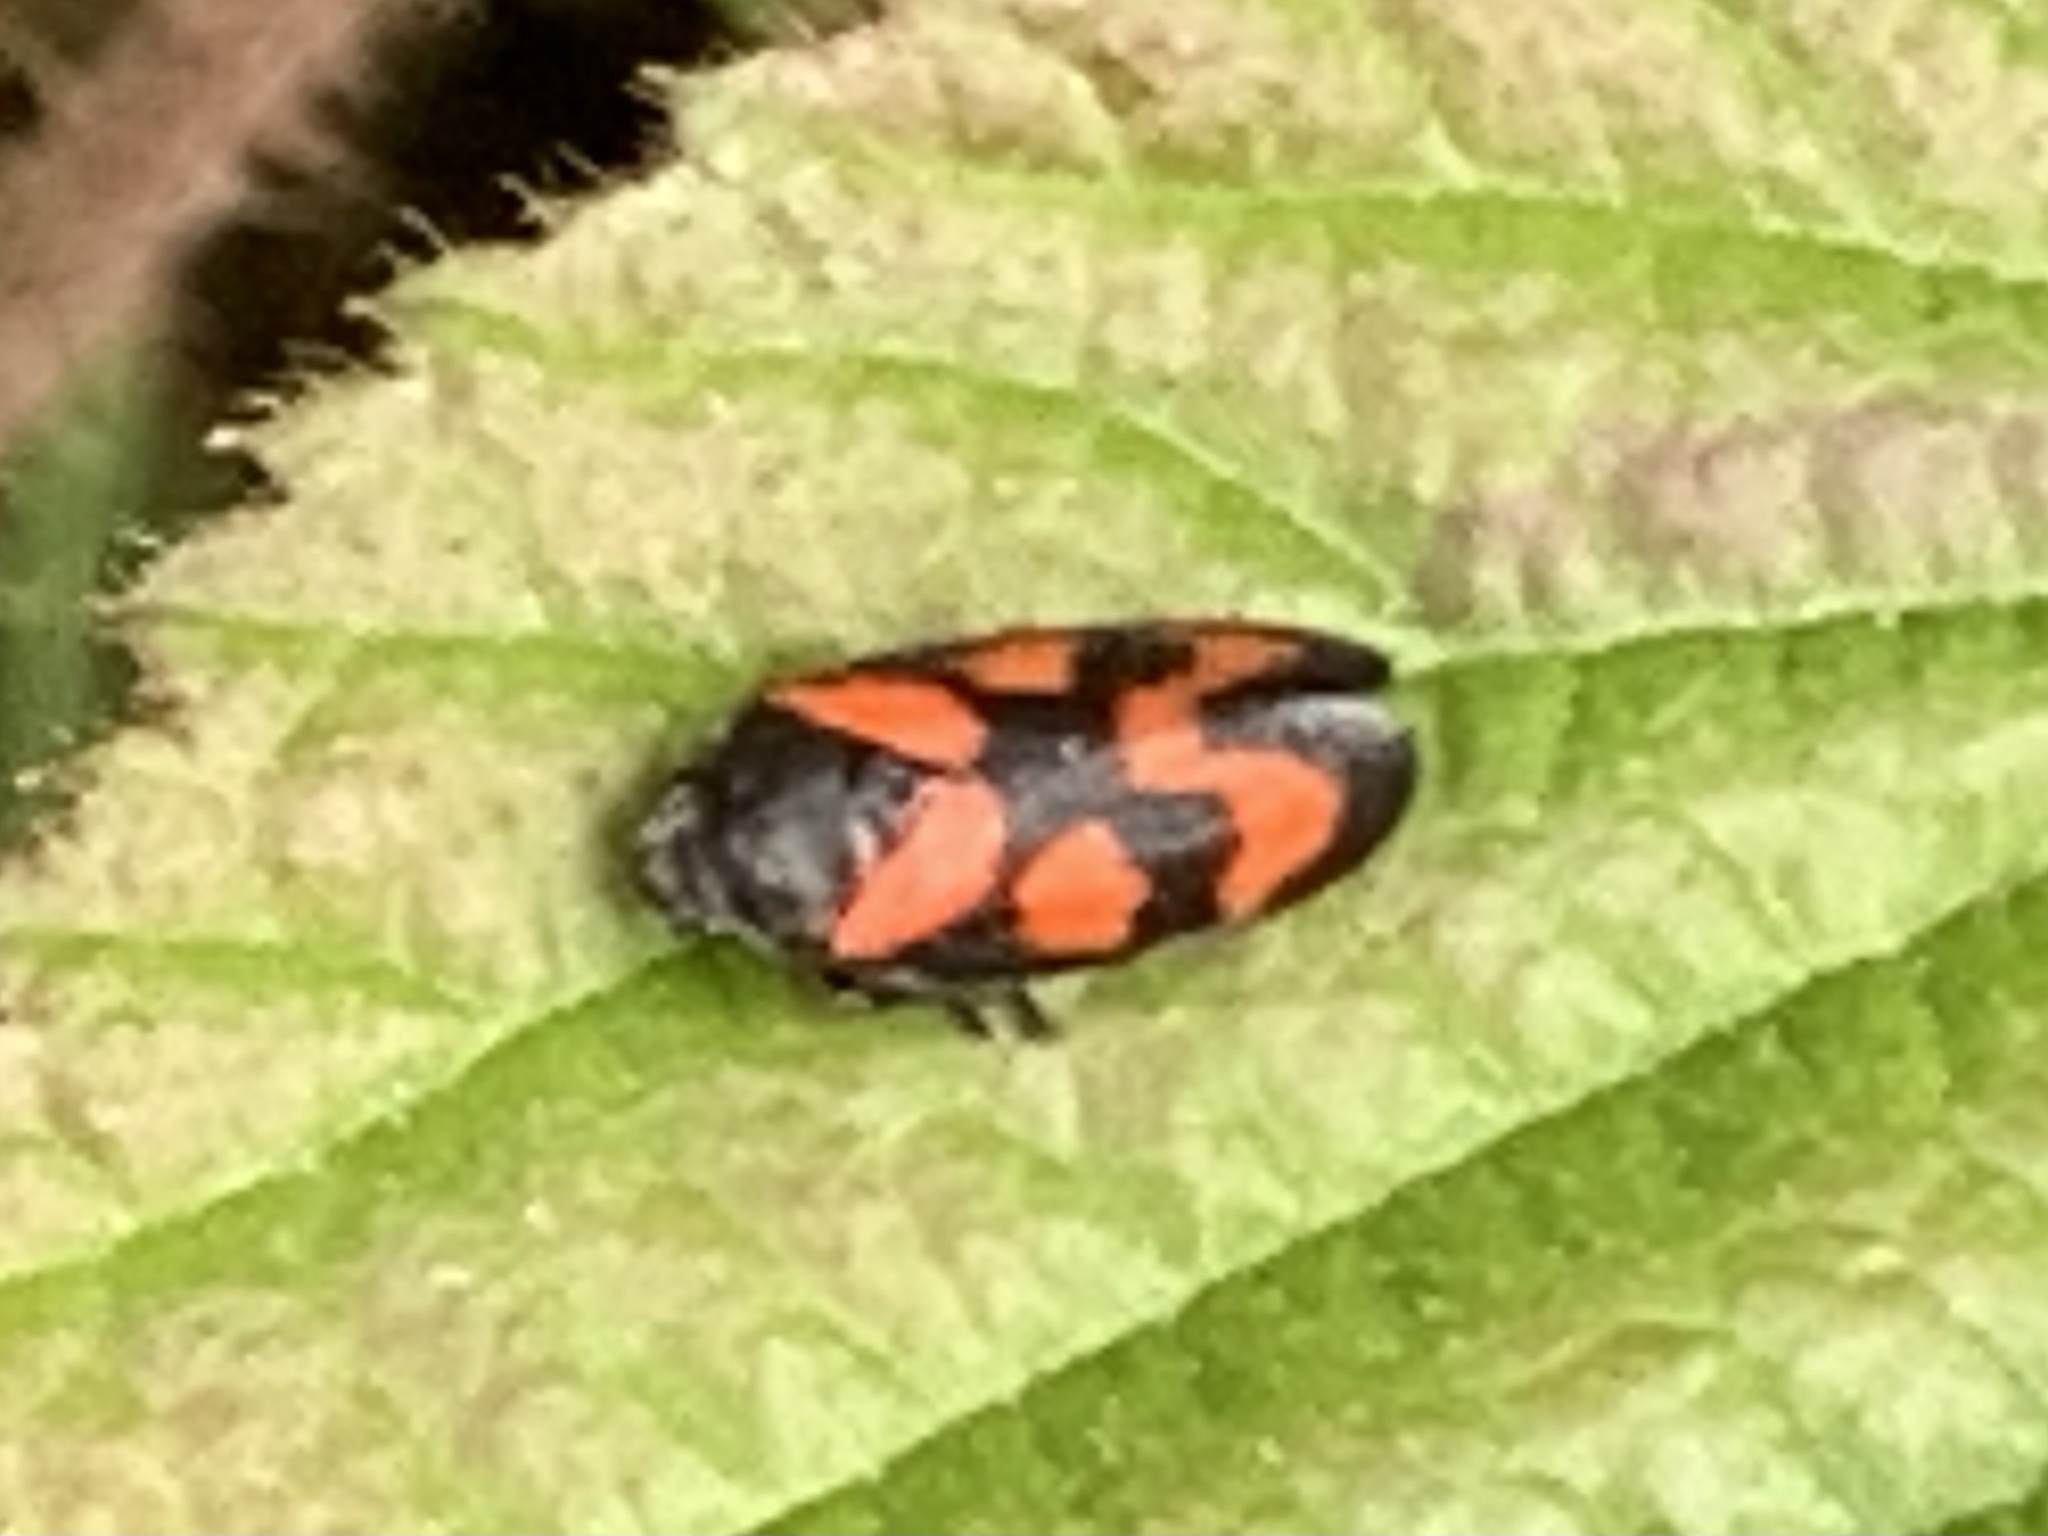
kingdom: Animalia
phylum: Arthropoda
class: Insecta
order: Hemiptera
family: Cercopidae
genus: Cercopis
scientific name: Cercopis vulnerata
